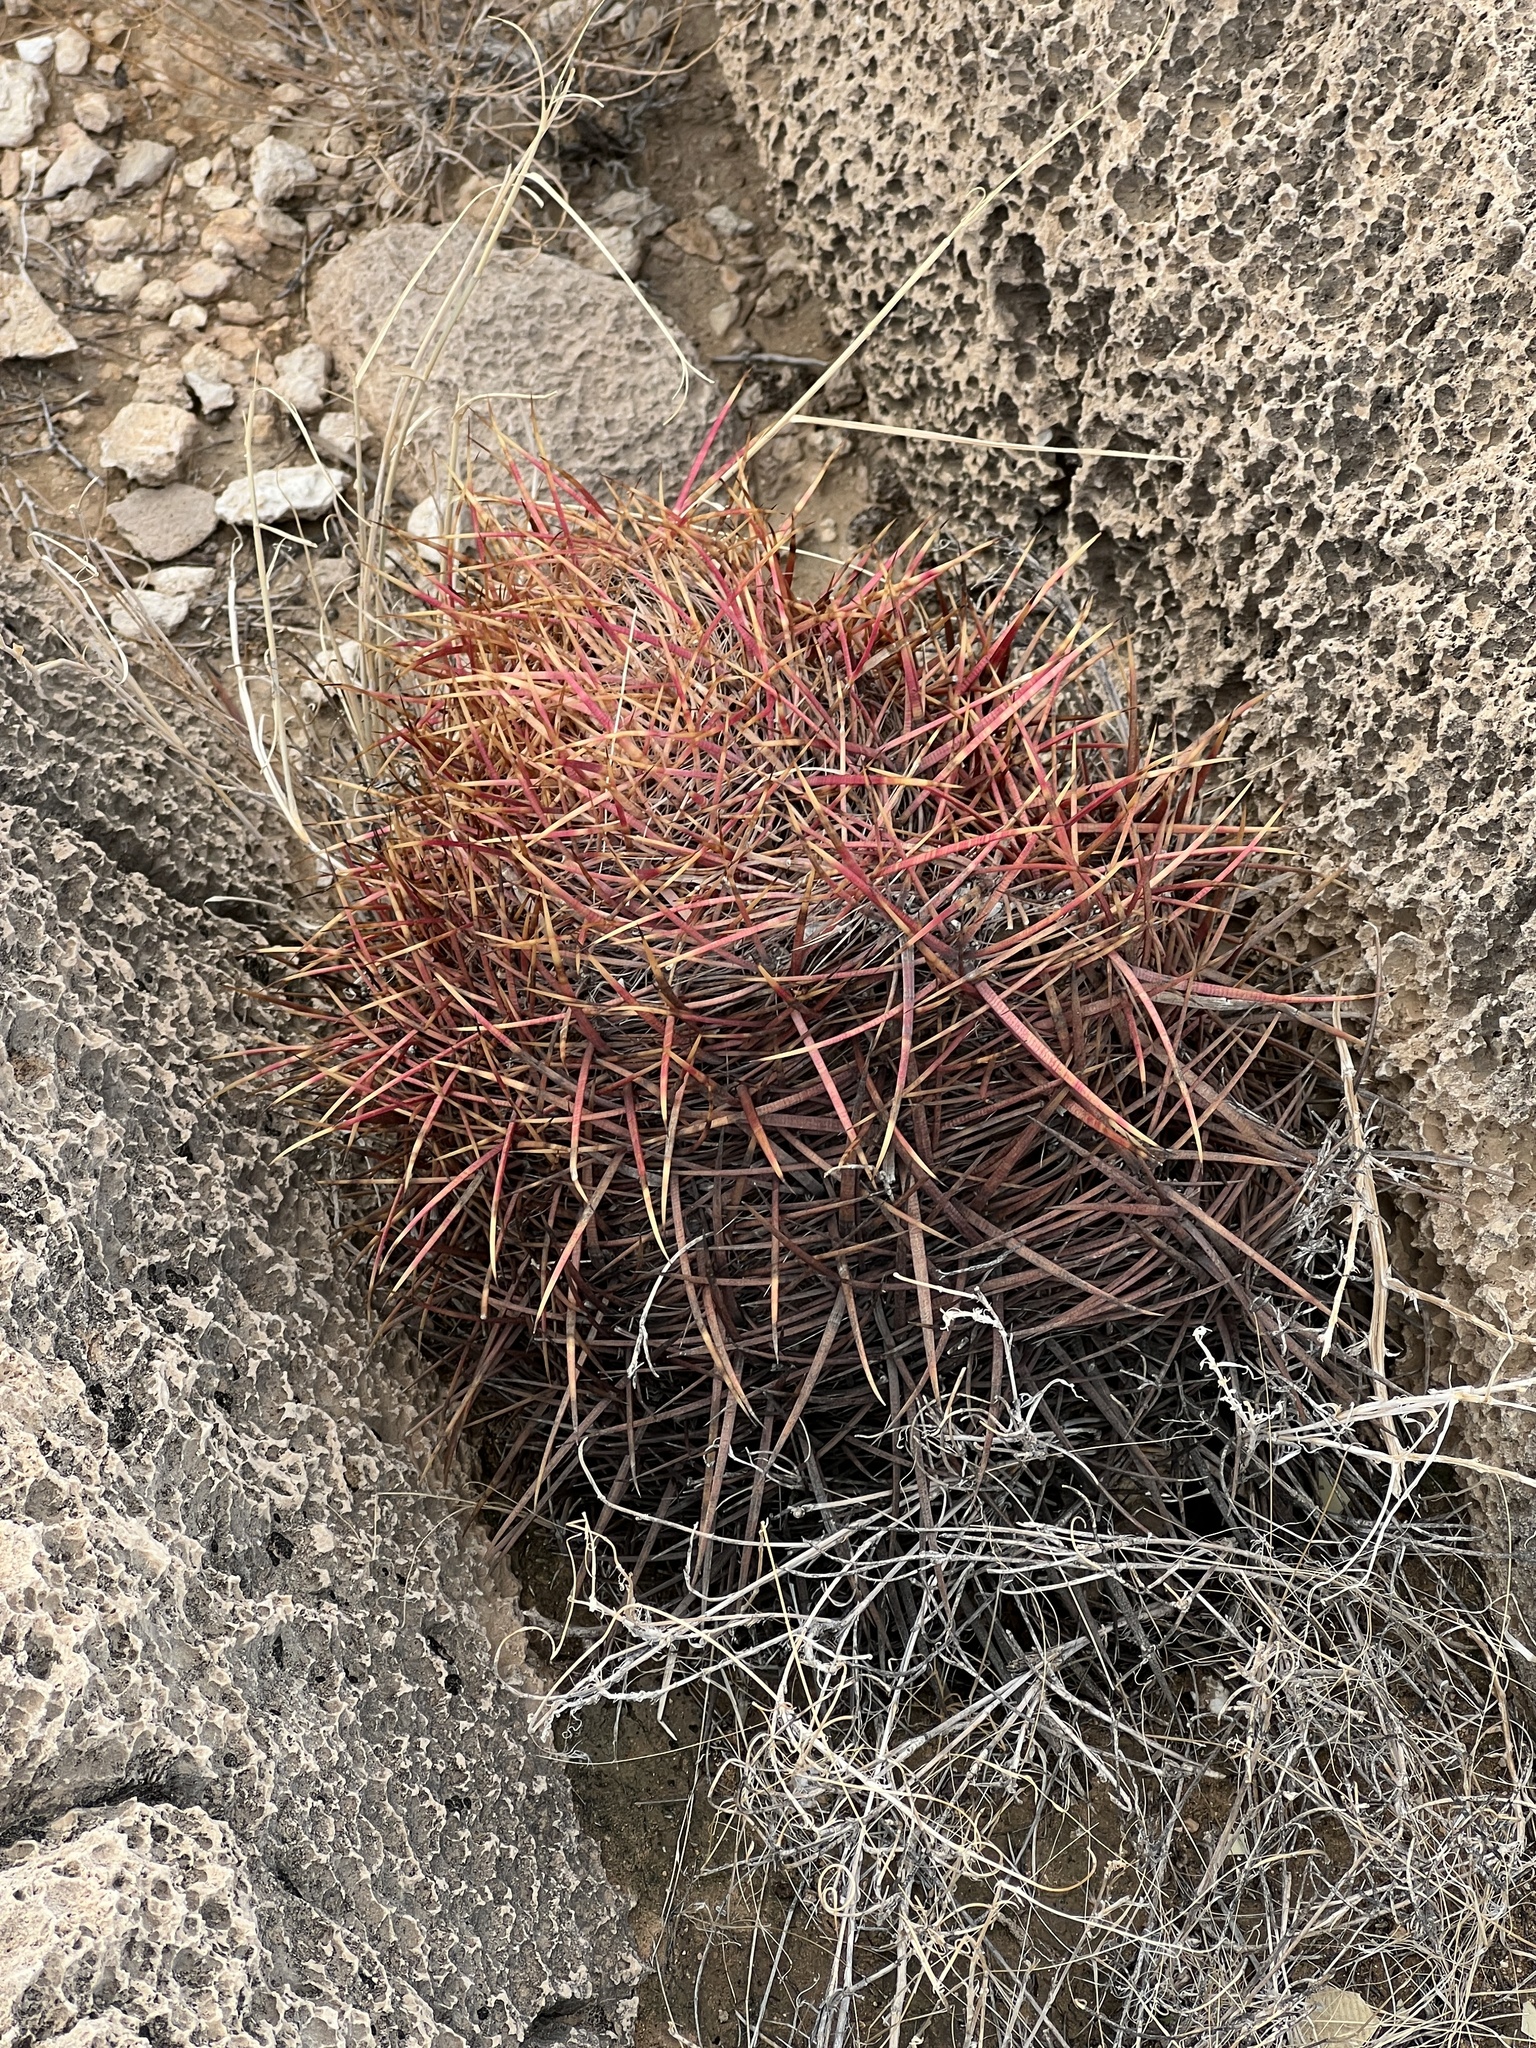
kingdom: Plantae
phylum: Tracheophyta
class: Magnoliopsida
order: Caryophyllales
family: Cactaceae
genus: Ferocactus
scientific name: Ferocactus cylindraceus
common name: California barrel cactus
